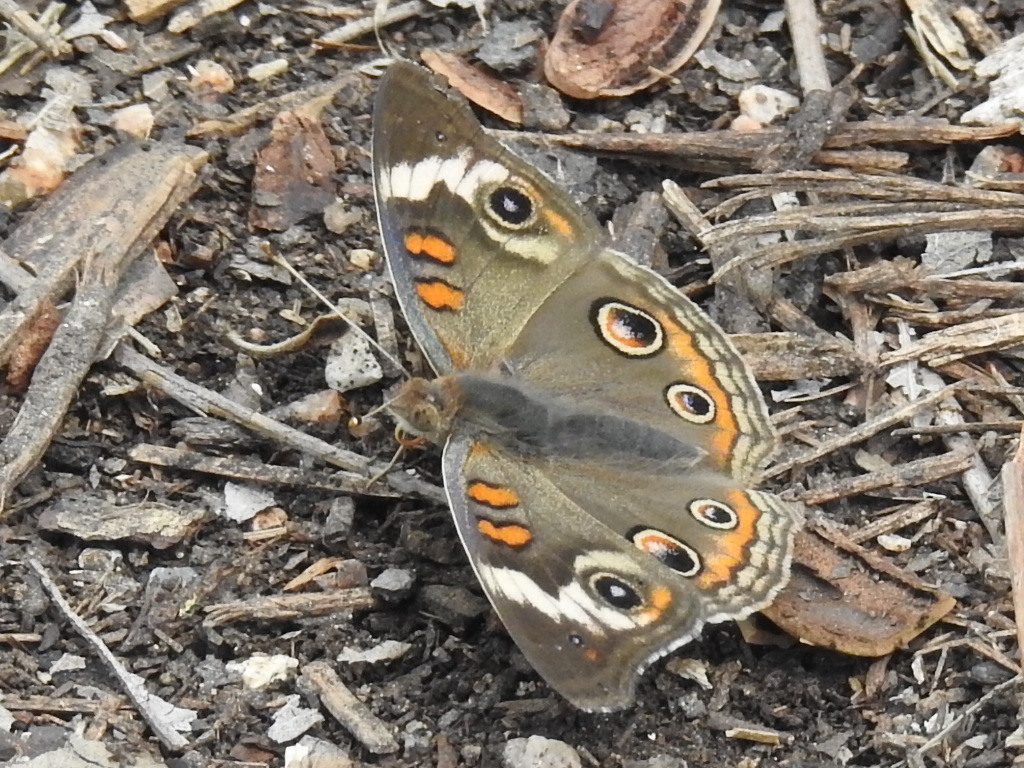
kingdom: Animalia
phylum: Arthropoda
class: Insecta
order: Lepidoptera
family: Nymphalidae
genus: Junonia
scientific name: Junonia coenia
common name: Common buckeye
